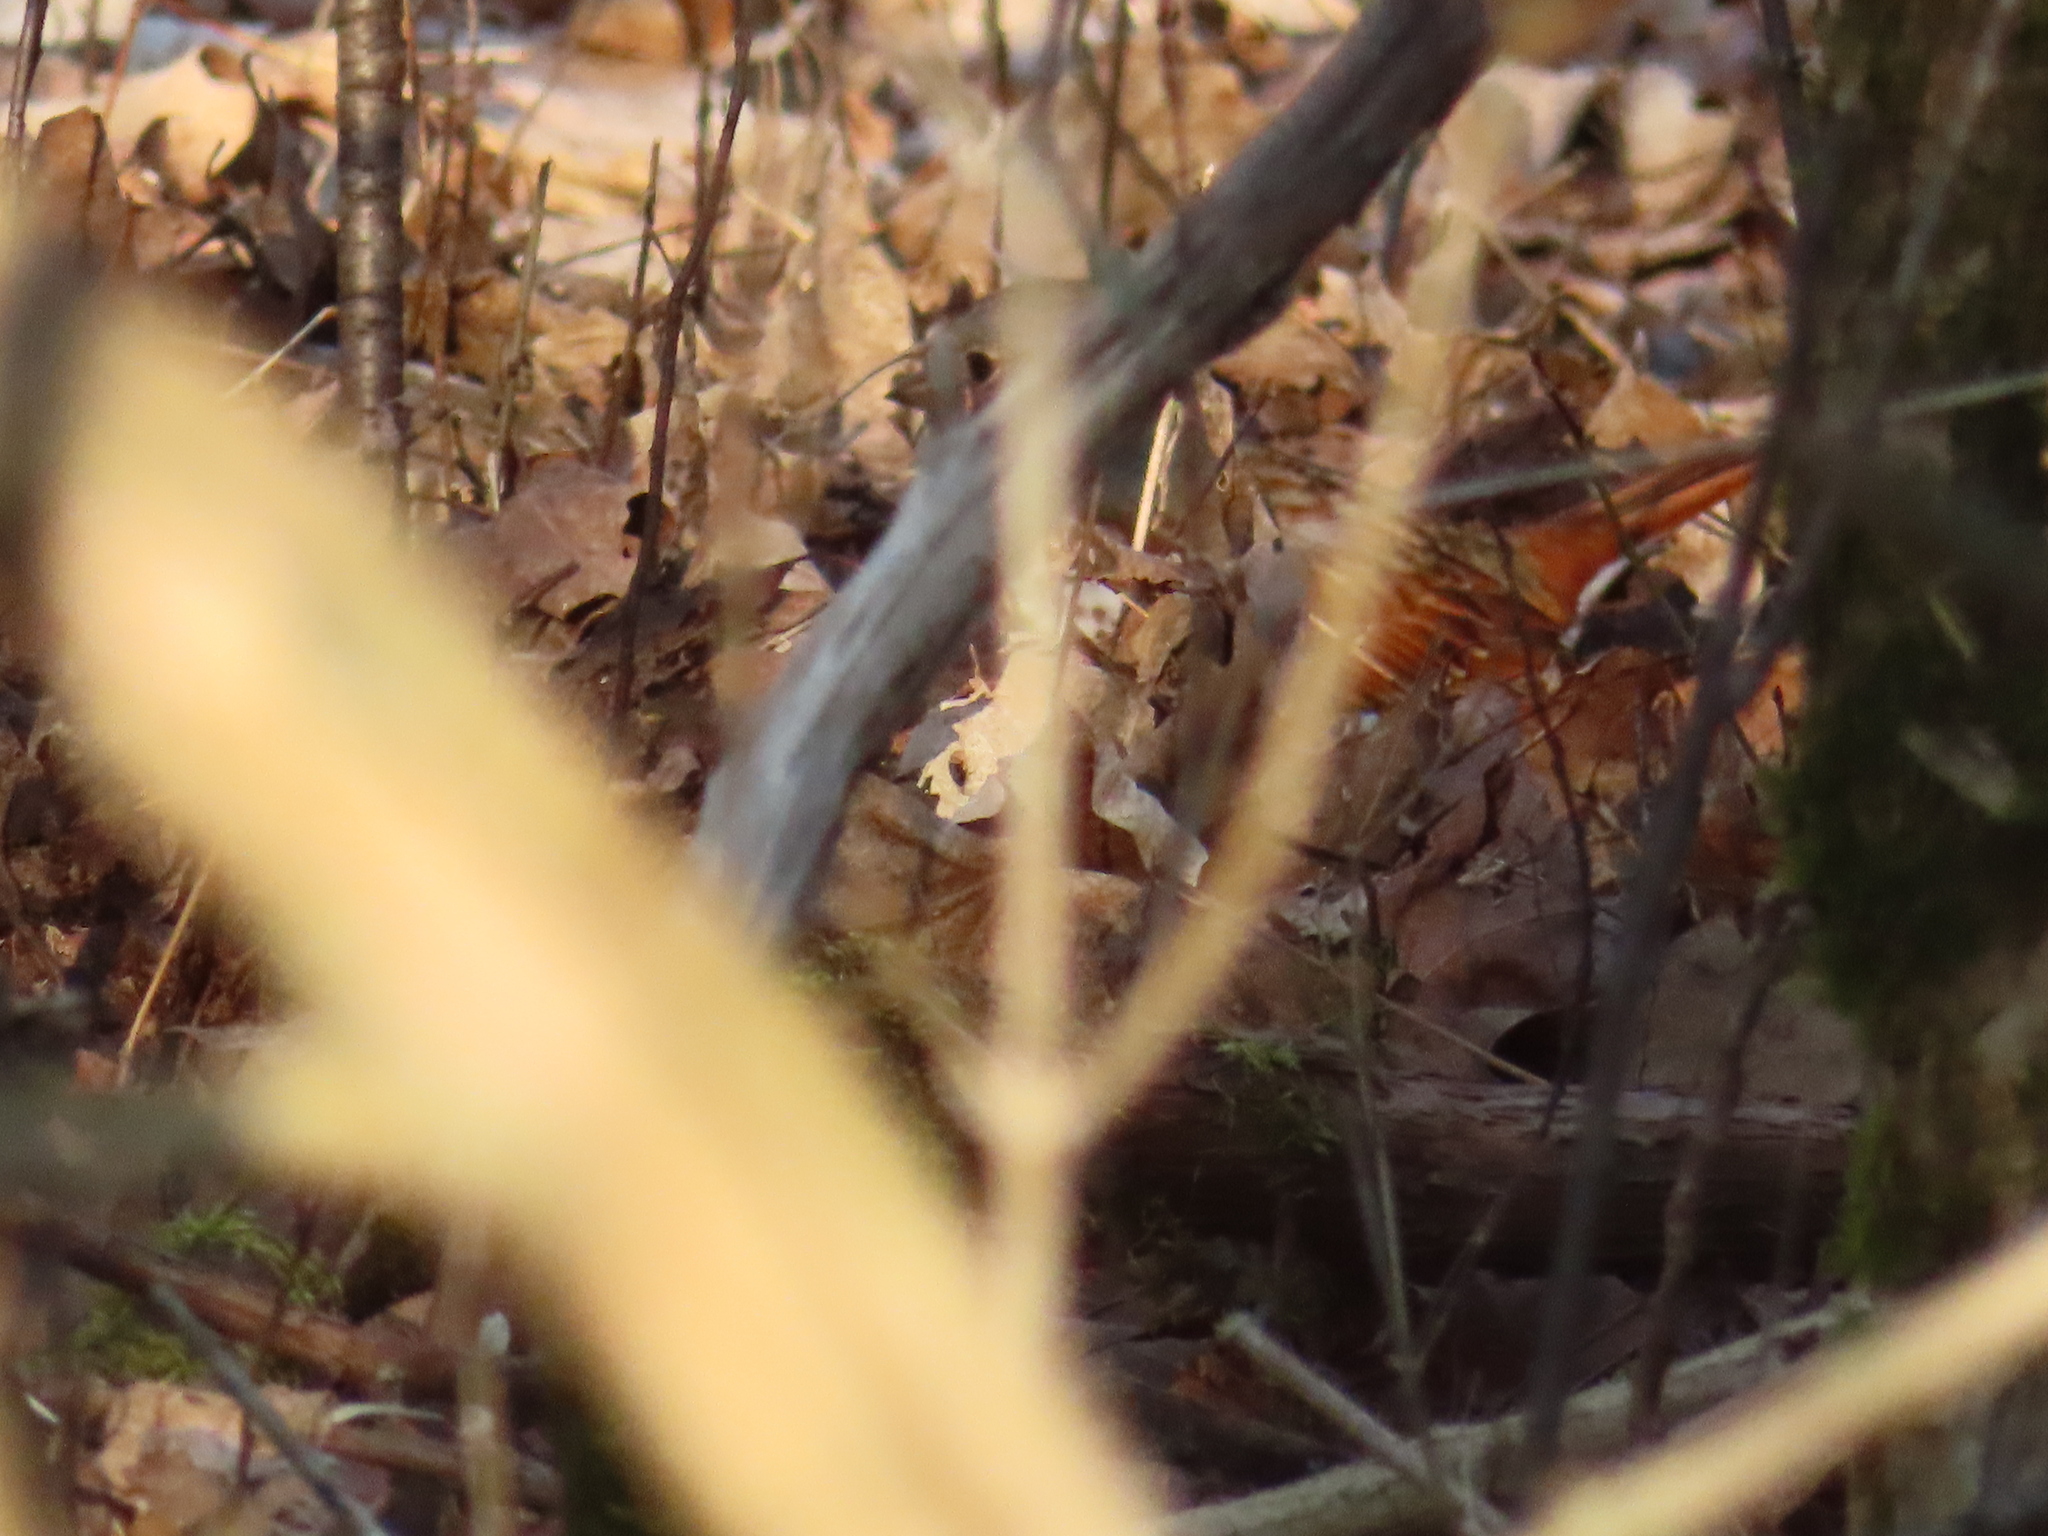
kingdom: Animalia
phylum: Chordata
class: Aves
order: Passeriformes
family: Passerellidae
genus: Passerella
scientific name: Passerella iliaca
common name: Fox sparrow
